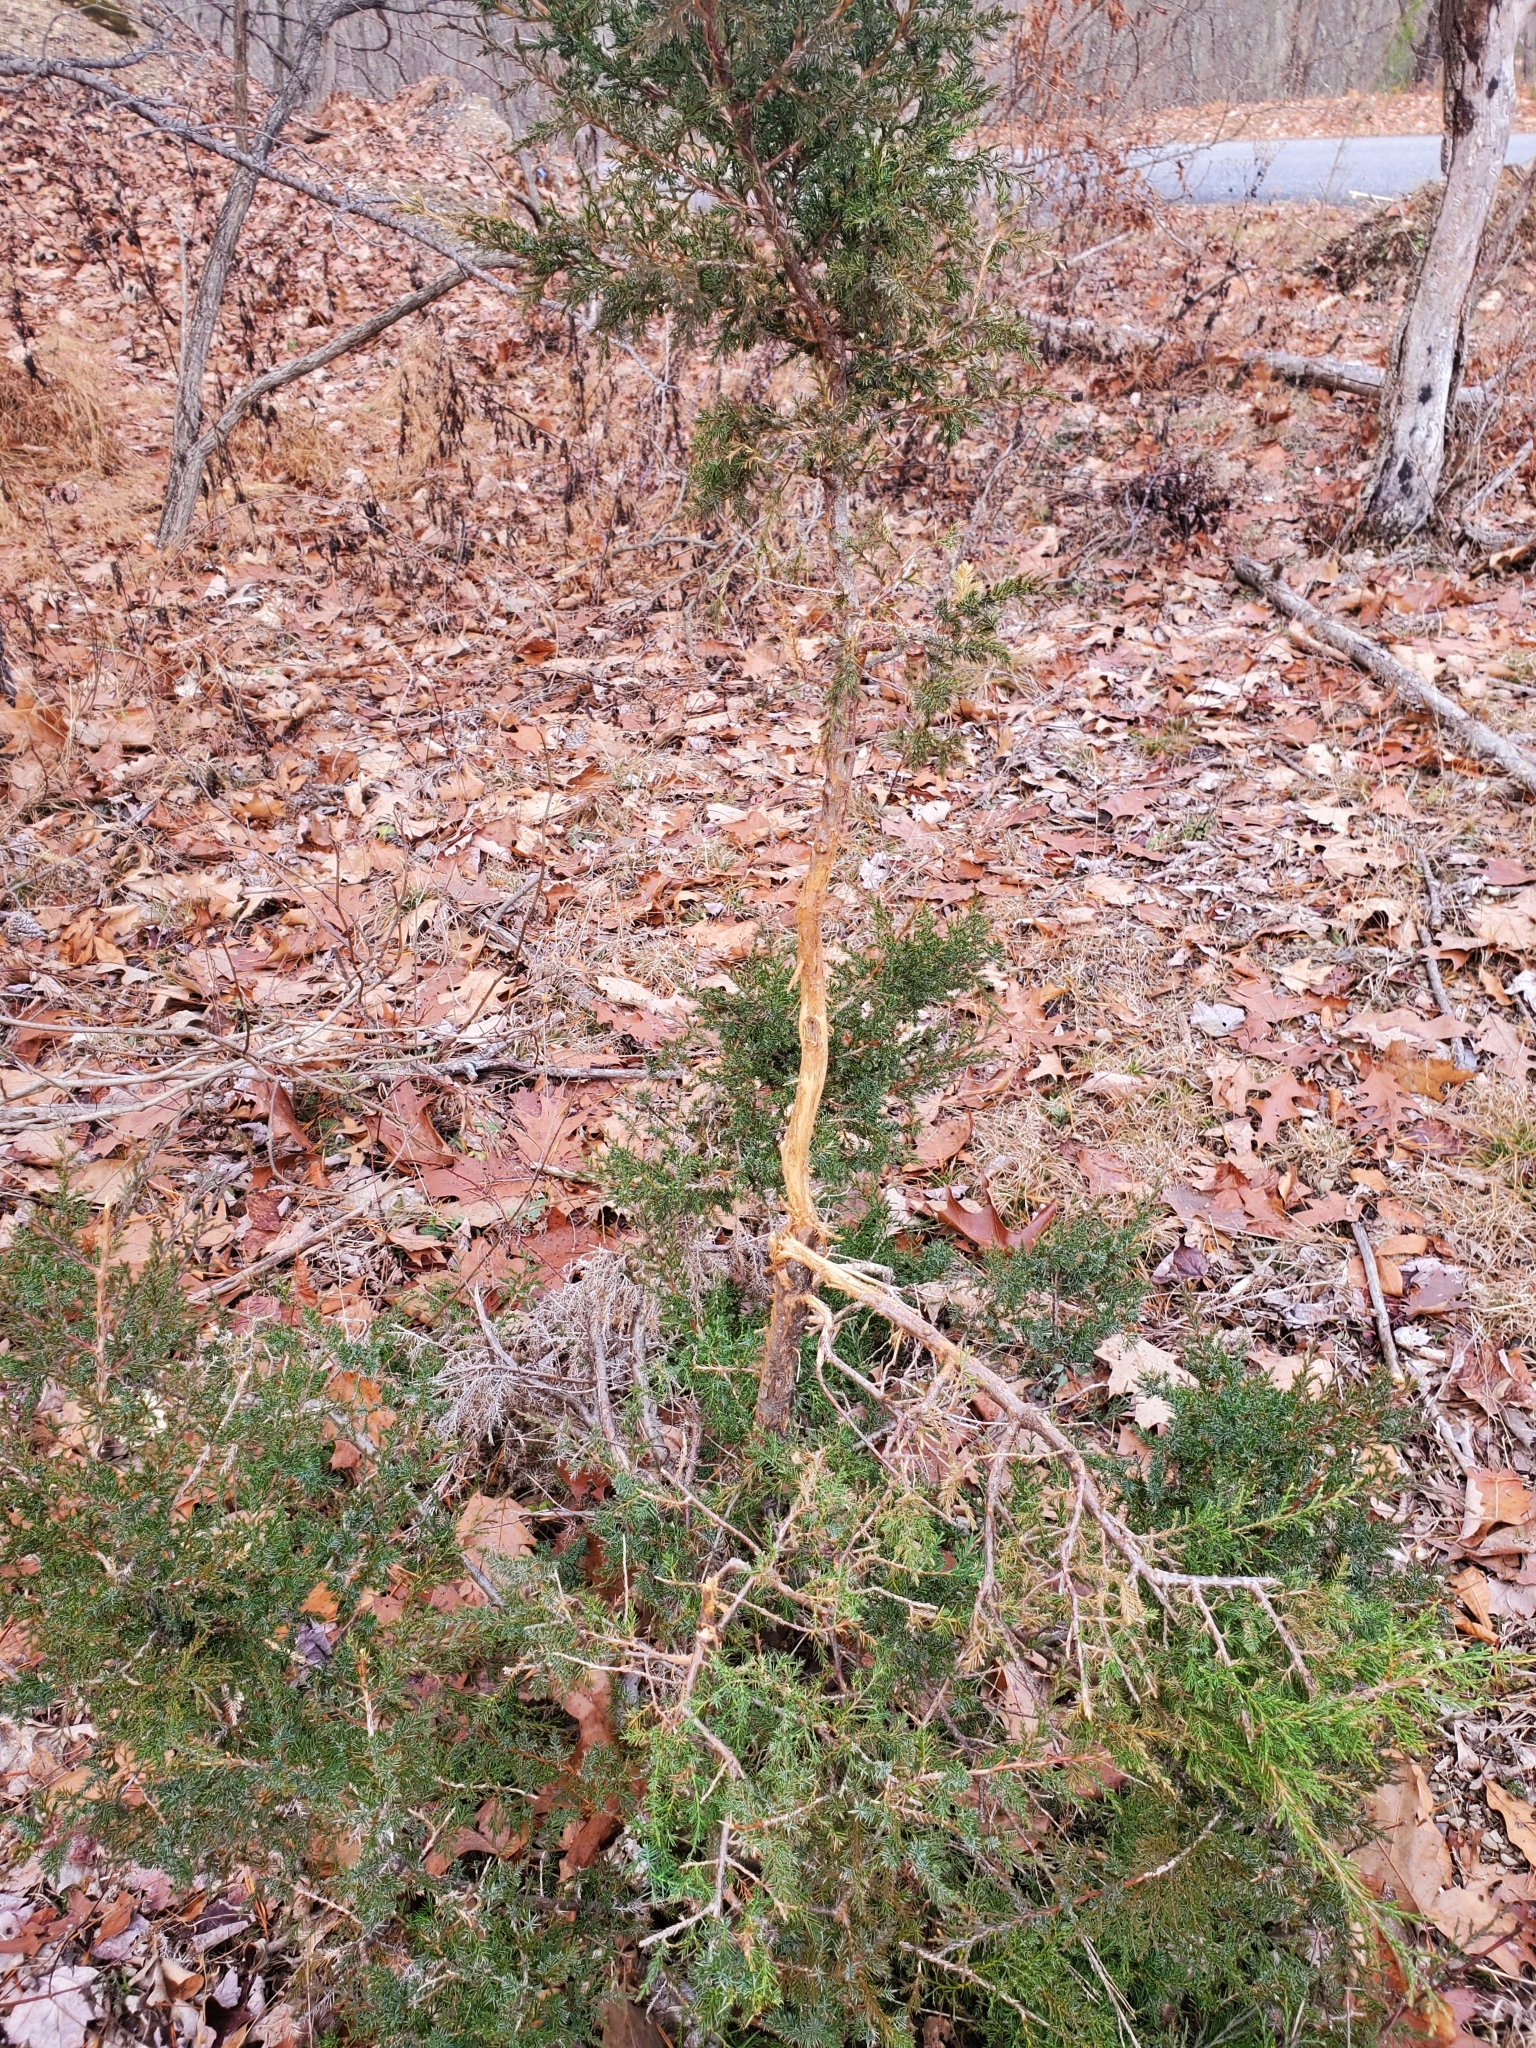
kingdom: Animalia
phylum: Chordata
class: Mammalia
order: Artiodactyla
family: Cervidae
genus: Odocoileus
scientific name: Odocoileus virginianus
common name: White-tailed deer
